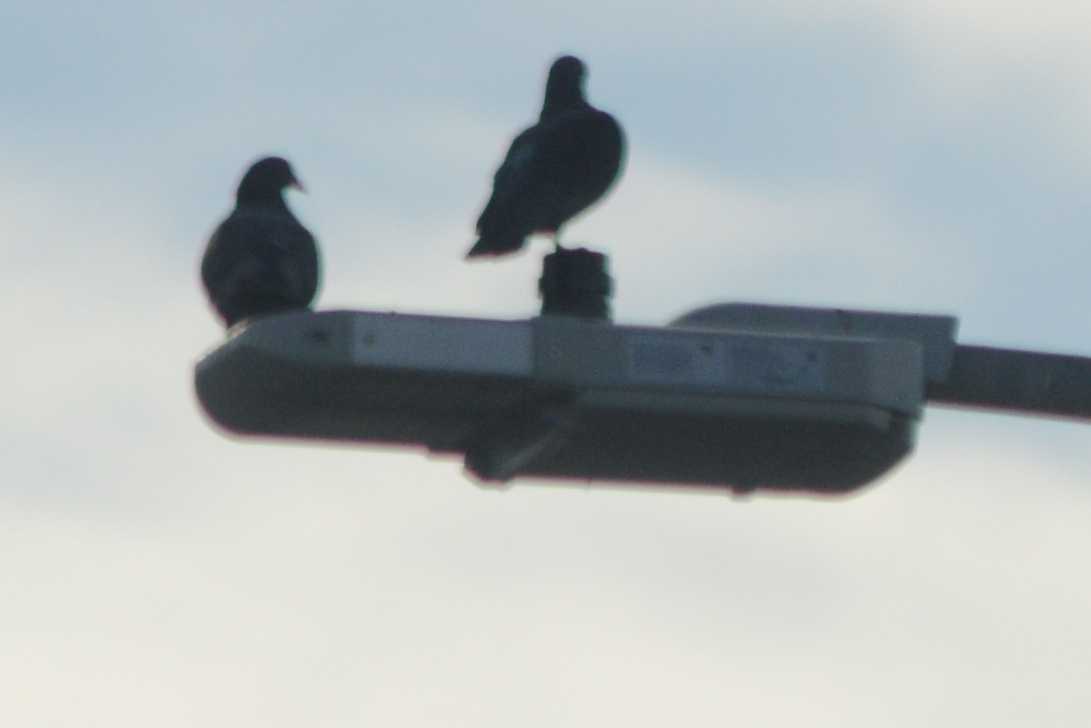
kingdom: Animalia
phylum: Chordata
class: Aves
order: Columbiformes
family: Columbidae
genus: Columba
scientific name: Columba livia
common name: Rock pigeon
